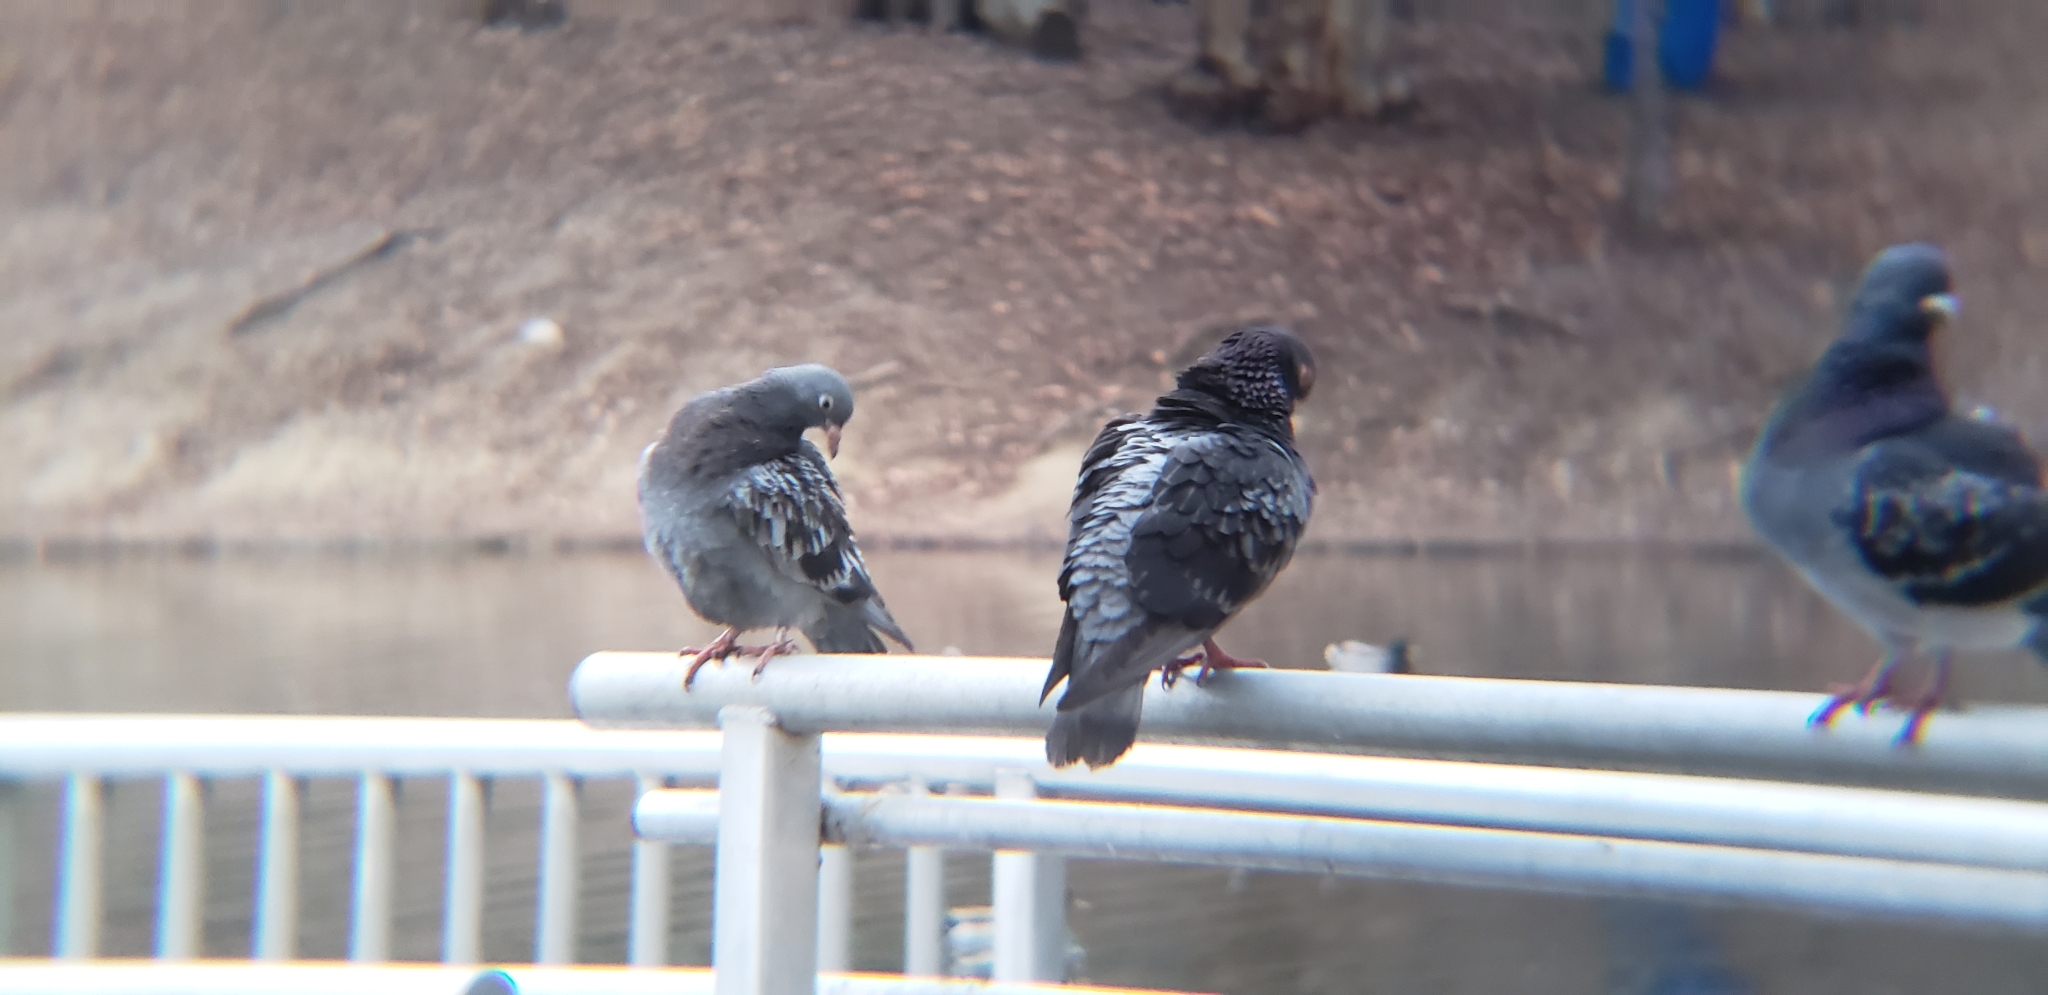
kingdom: Animalia
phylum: Chordata
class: Aves
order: Columbiformes
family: Columbidae
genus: Columba
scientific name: Columba livia
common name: Rock pigeon
